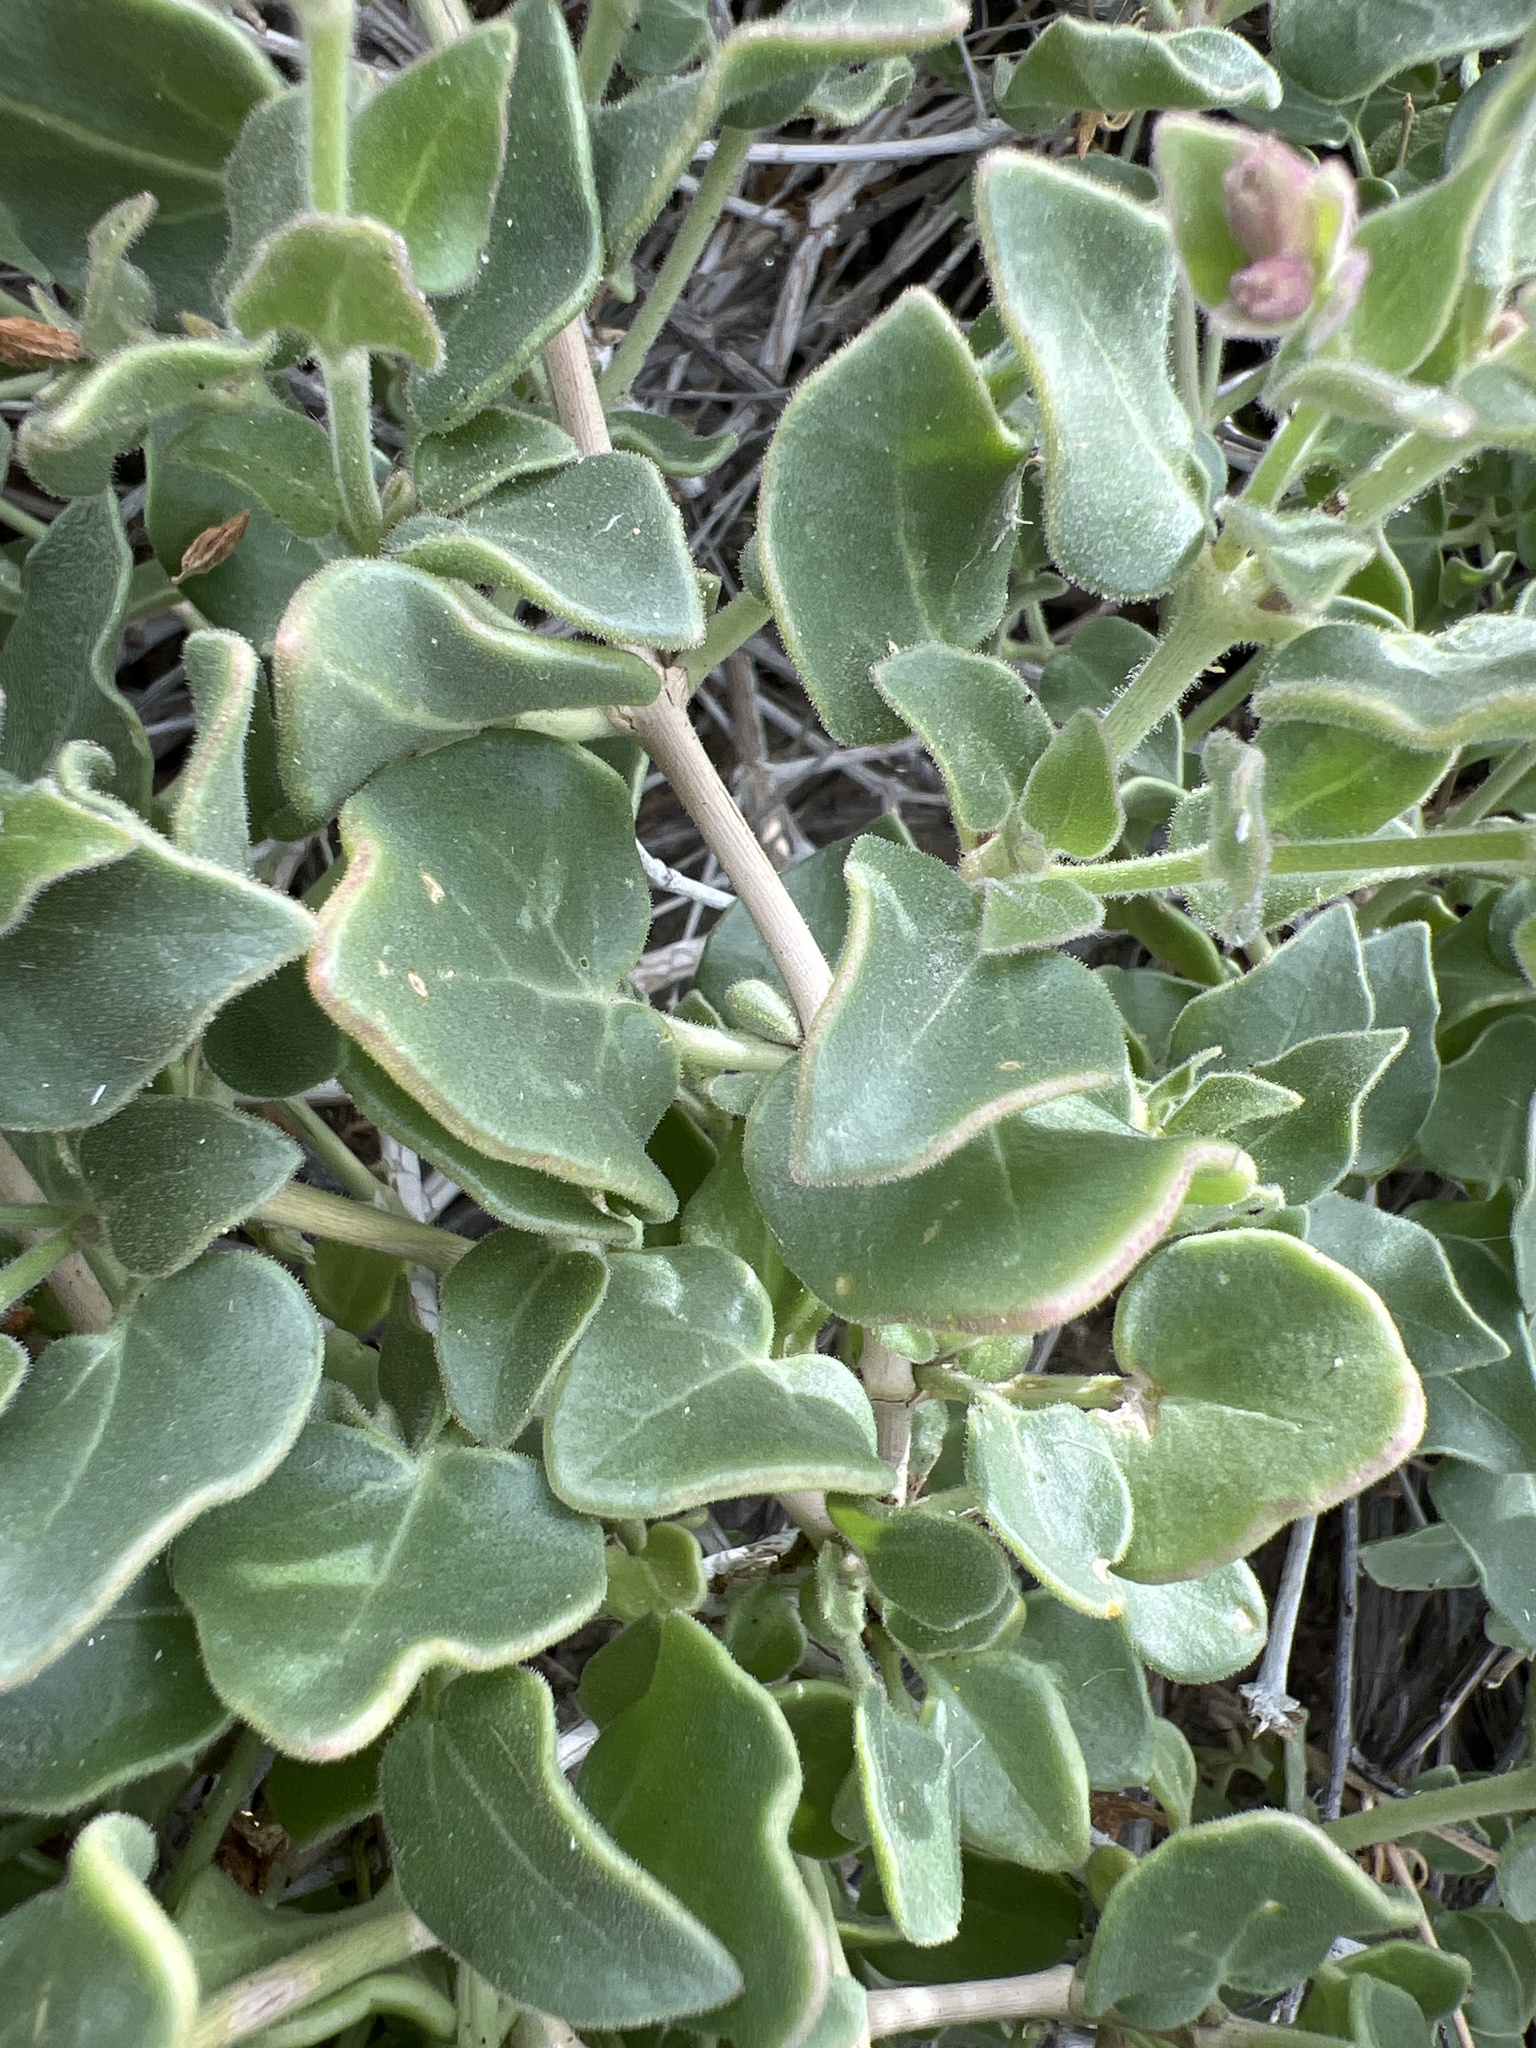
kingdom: Plantae
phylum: Tracheophyta
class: Magnoliopsida
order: Caryophyllales
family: Nyctaginaceae
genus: Mirabilis
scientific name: Mirabilis tenuiloba
